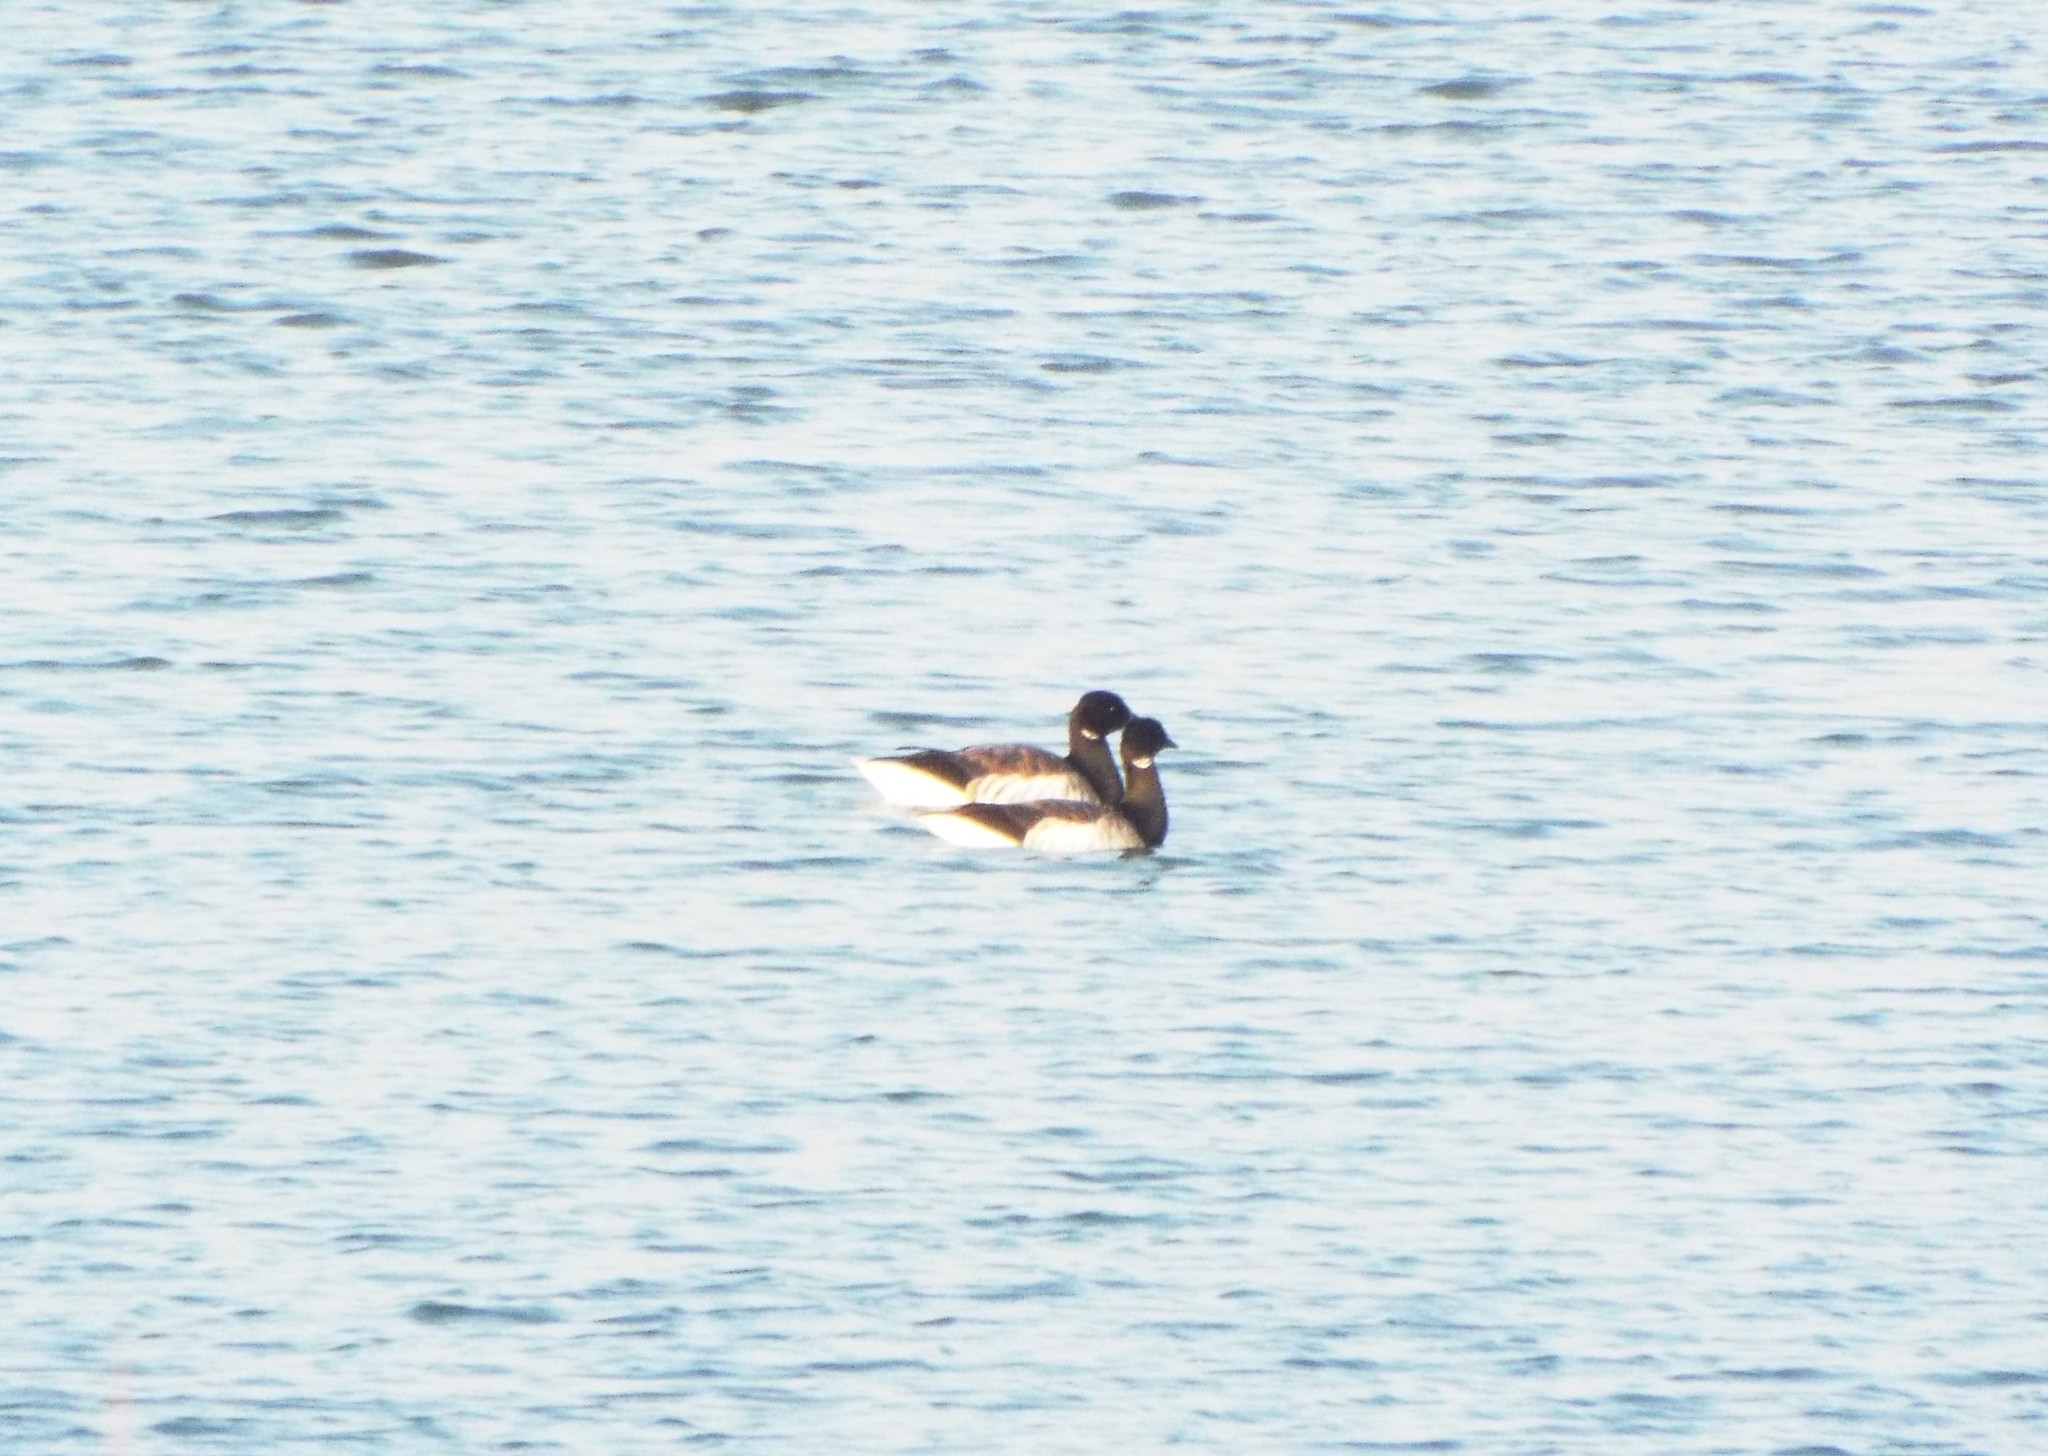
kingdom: Animalia
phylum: Chordata
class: Aves
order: Anseriformes
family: Anatidae
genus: Branta
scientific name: Branta bernicla
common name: Brant goose
